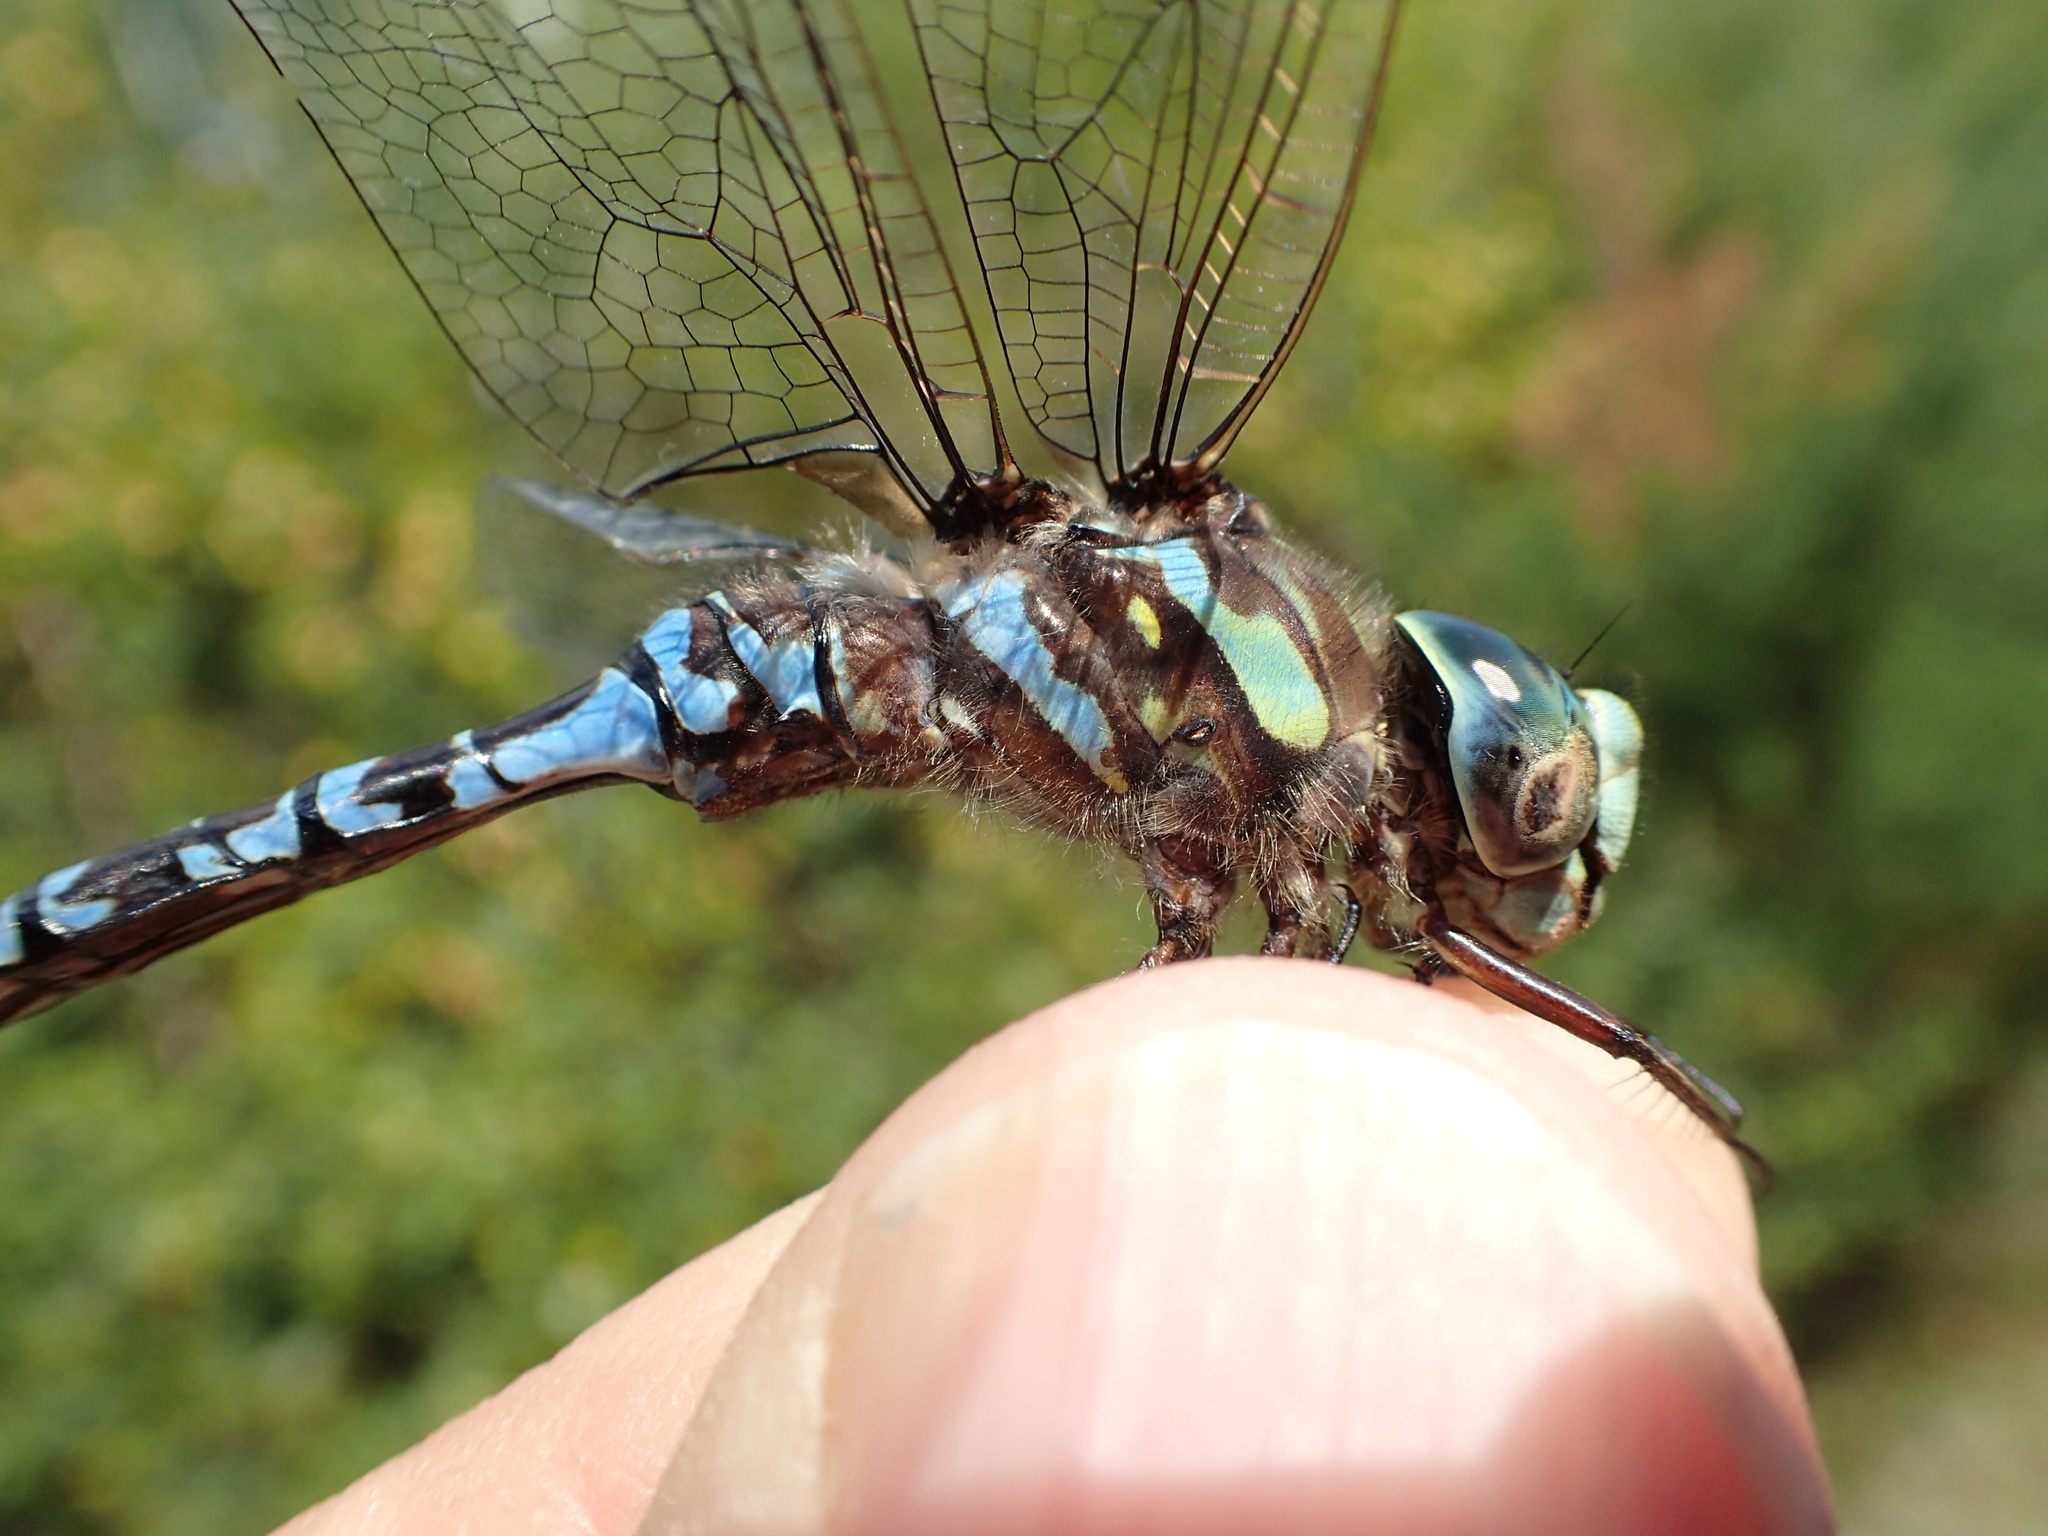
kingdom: Animalia
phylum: Arthropoda
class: Insecta
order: Odonata
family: Aeshnidae
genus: Aeshna
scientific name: Aeshna canadensis
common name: Canada darner
